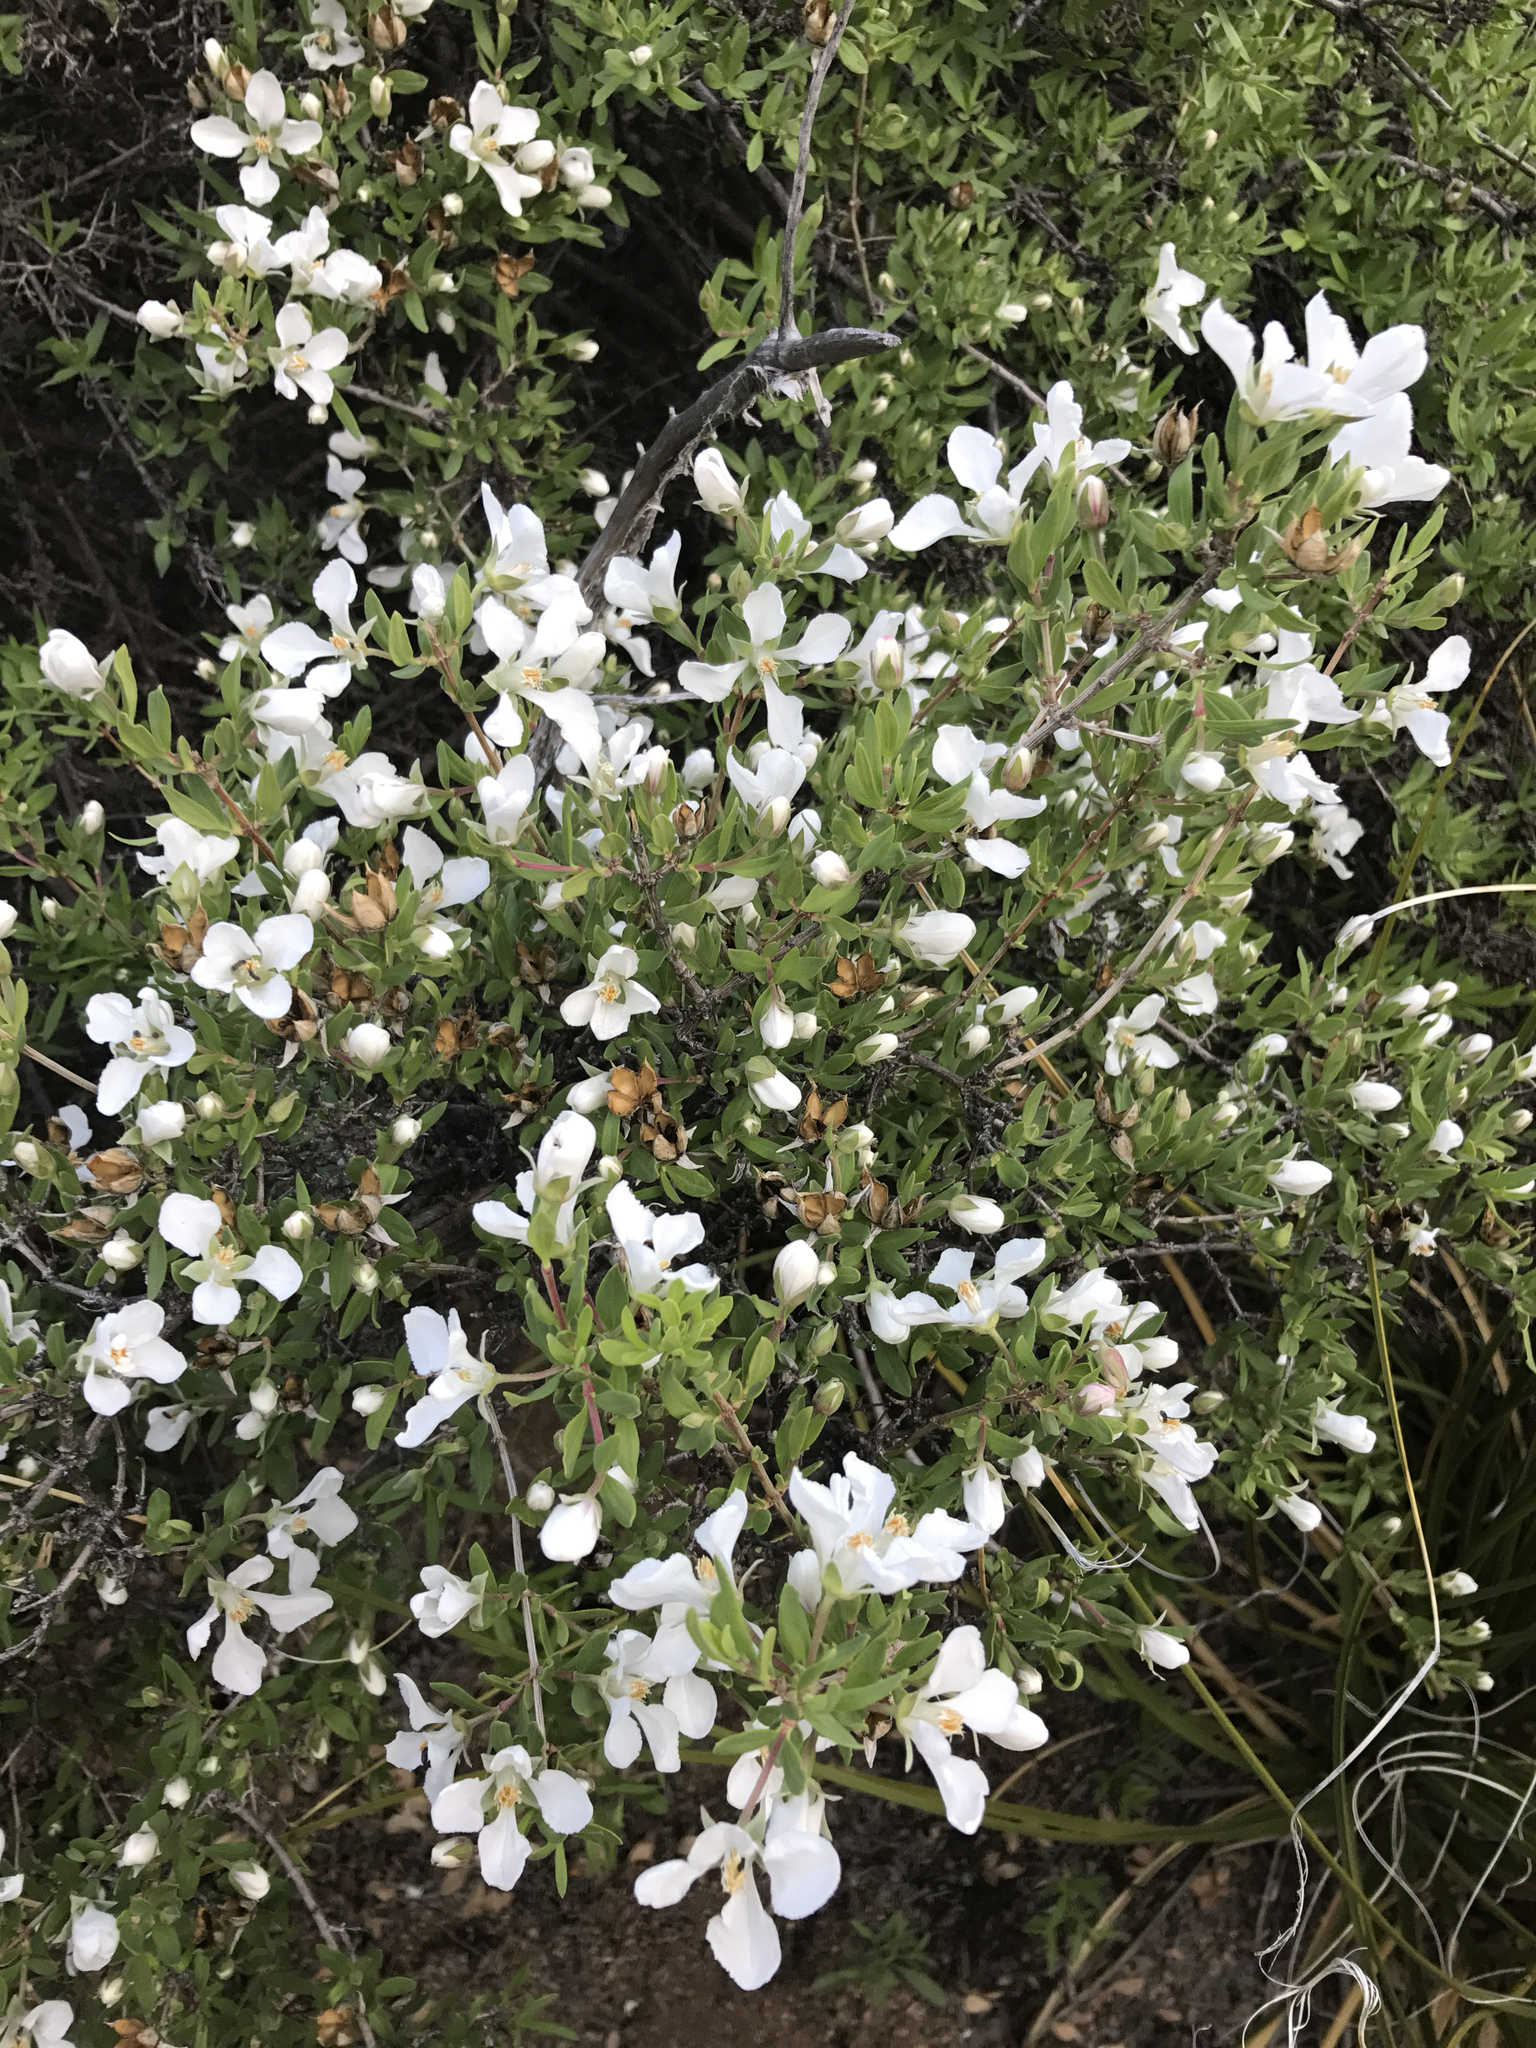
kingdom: Plantae
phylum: Tracheophyta
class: Magnoliopsida
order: Cornales
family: Hydrangeaceae
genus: Fendlera
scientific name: Fendlera rupicola
